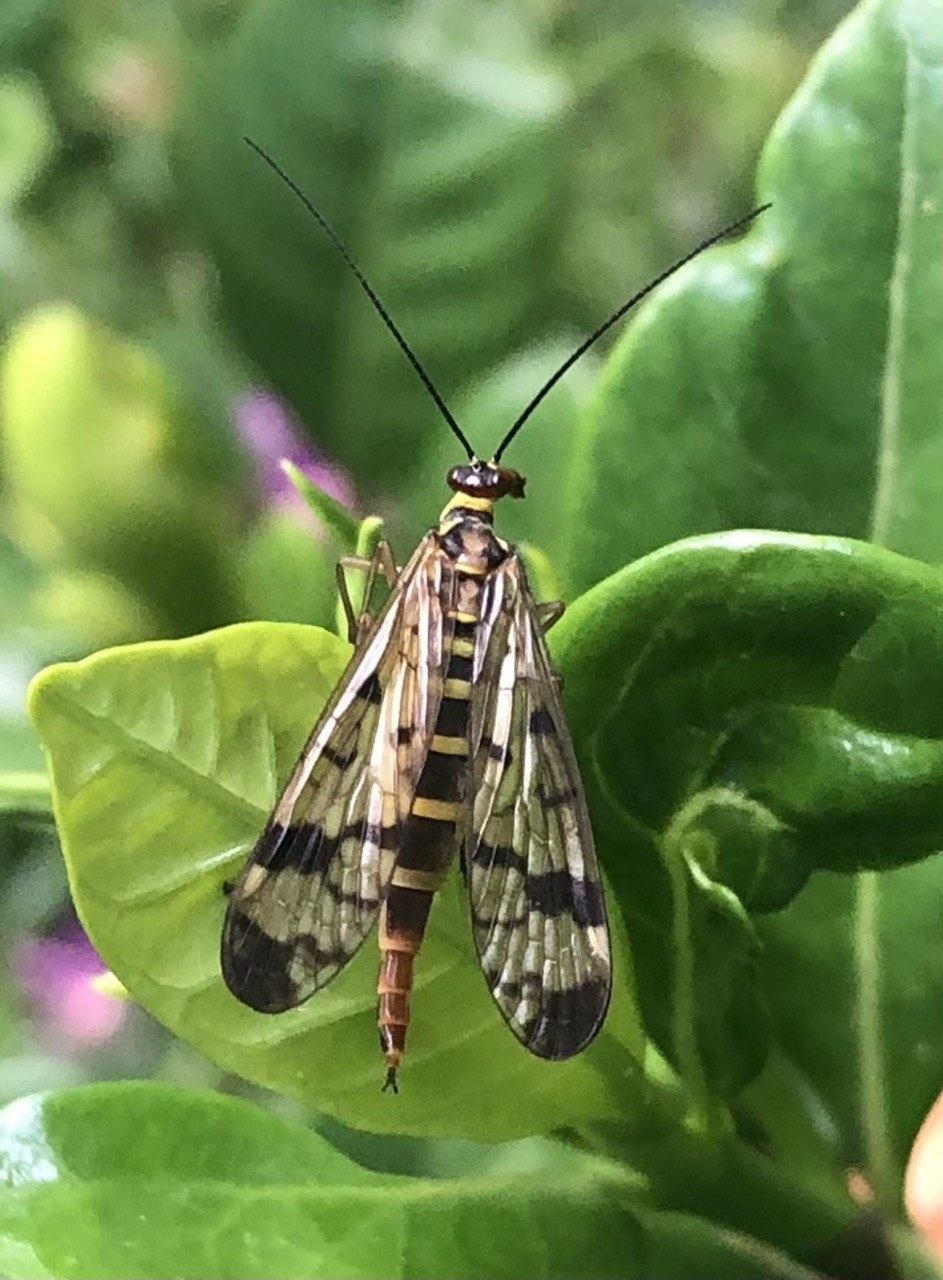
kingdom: Animalia
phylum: Arthropoda
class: Insecta
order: Mecoptera
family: Panorpidae
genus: Panorpa
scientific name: Panorpa cognata
